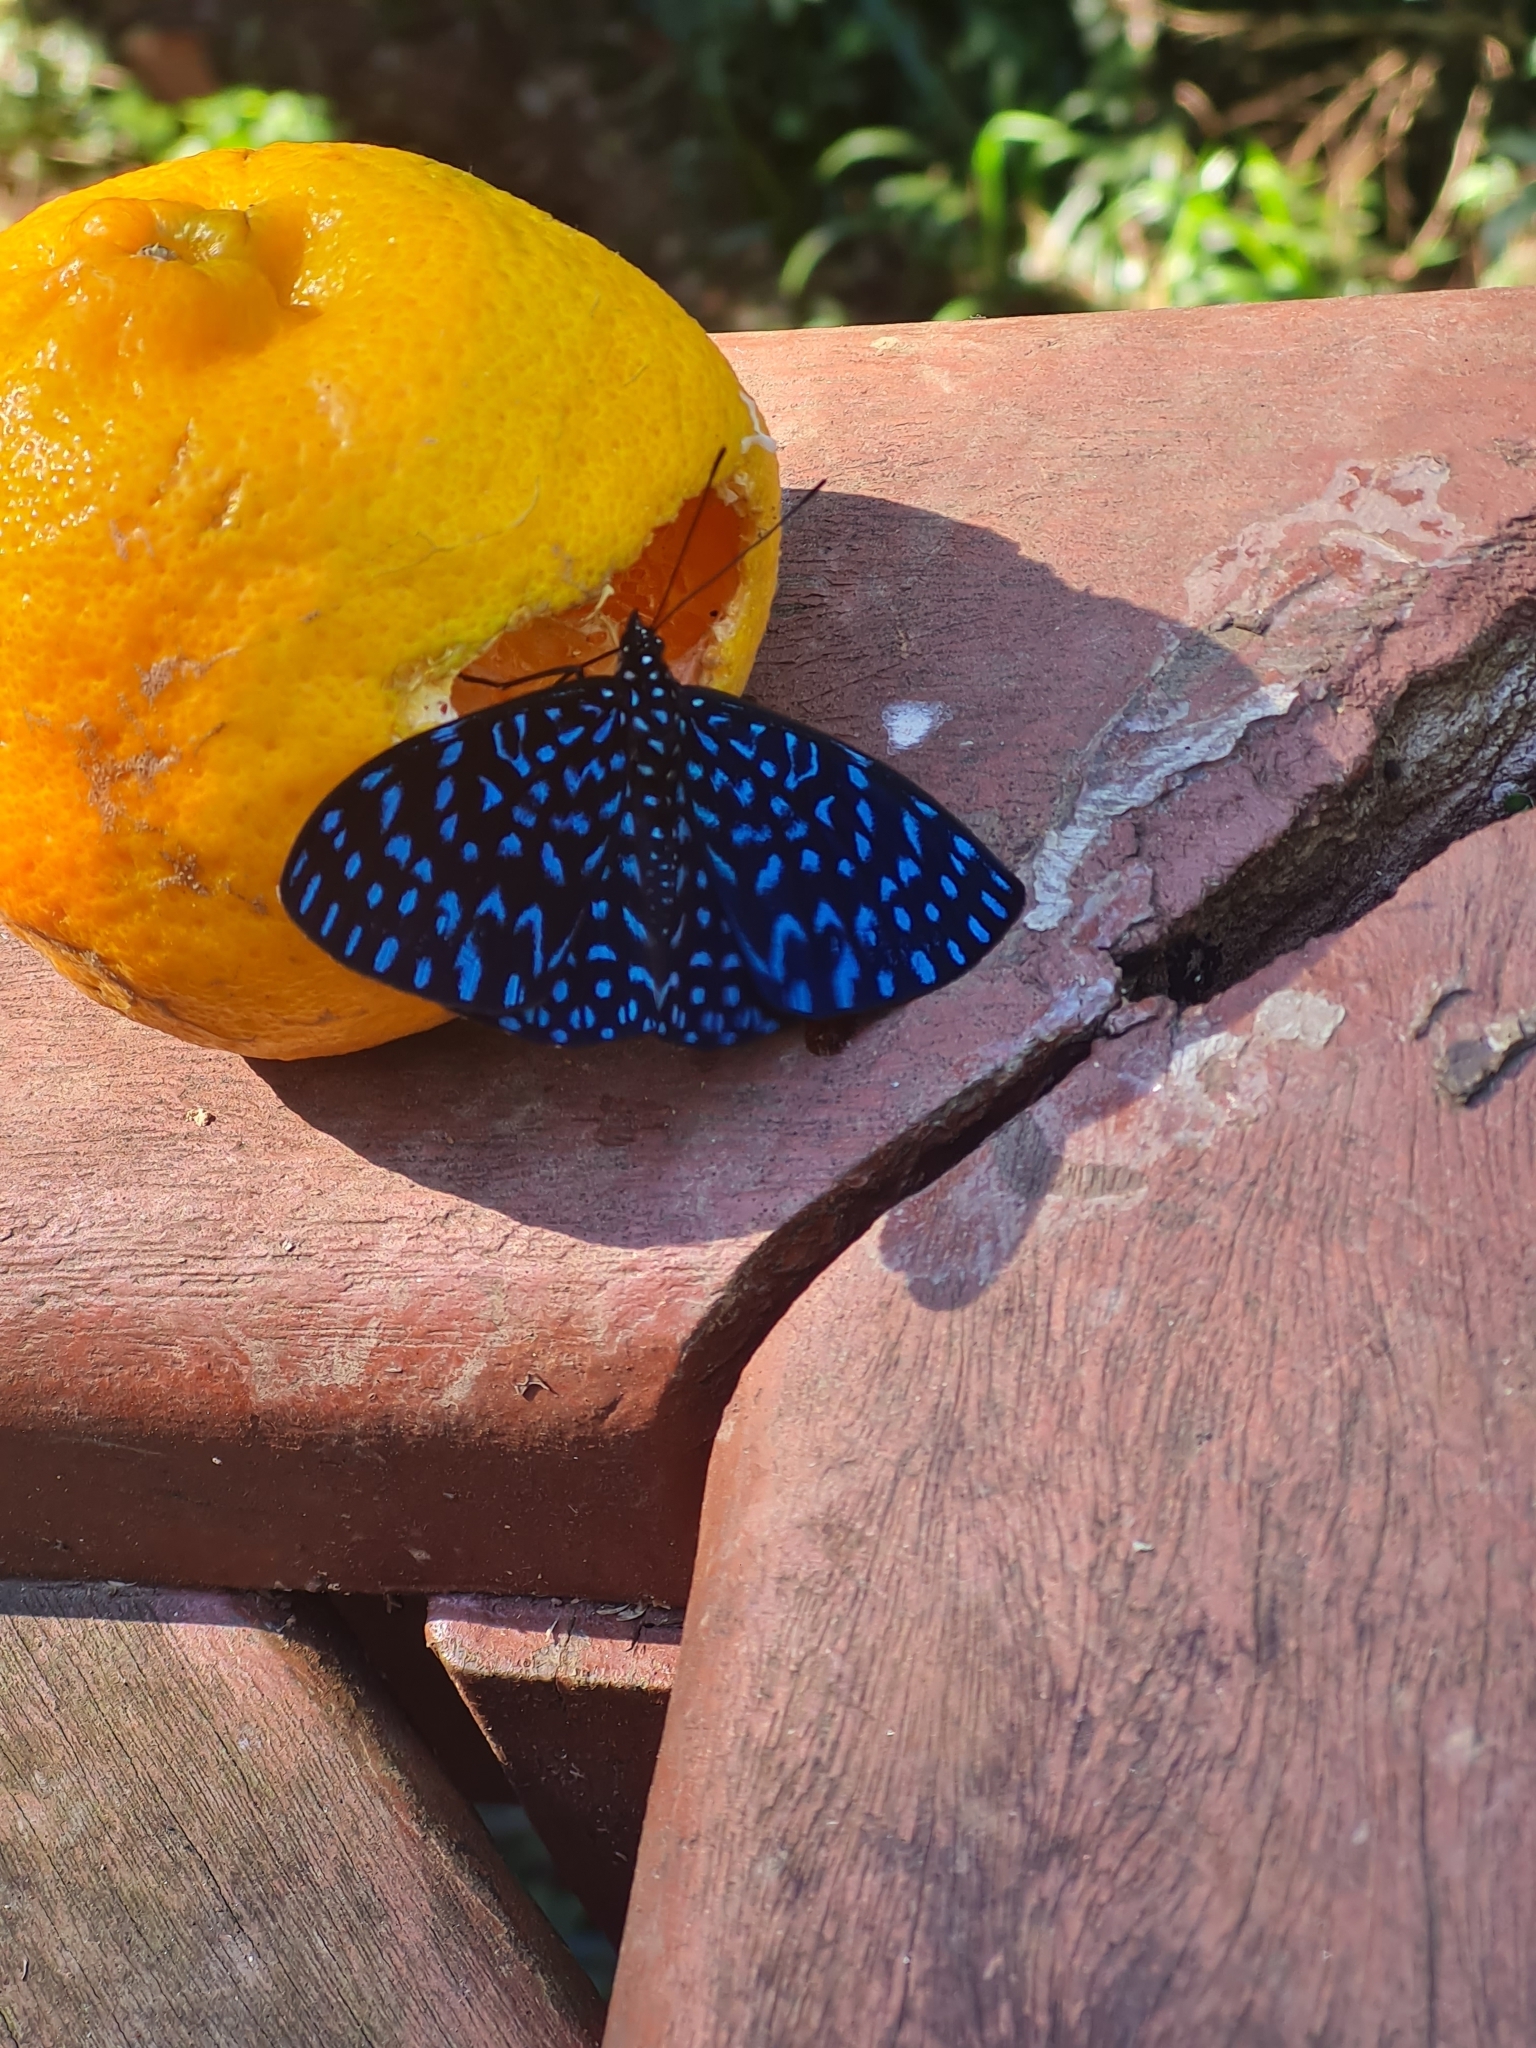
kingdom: Animalia
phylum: Arthropoda
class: Insecta
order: Lepidoptera
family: Nymphalidae
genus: Hamadryas
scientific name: Hamadryas arete
